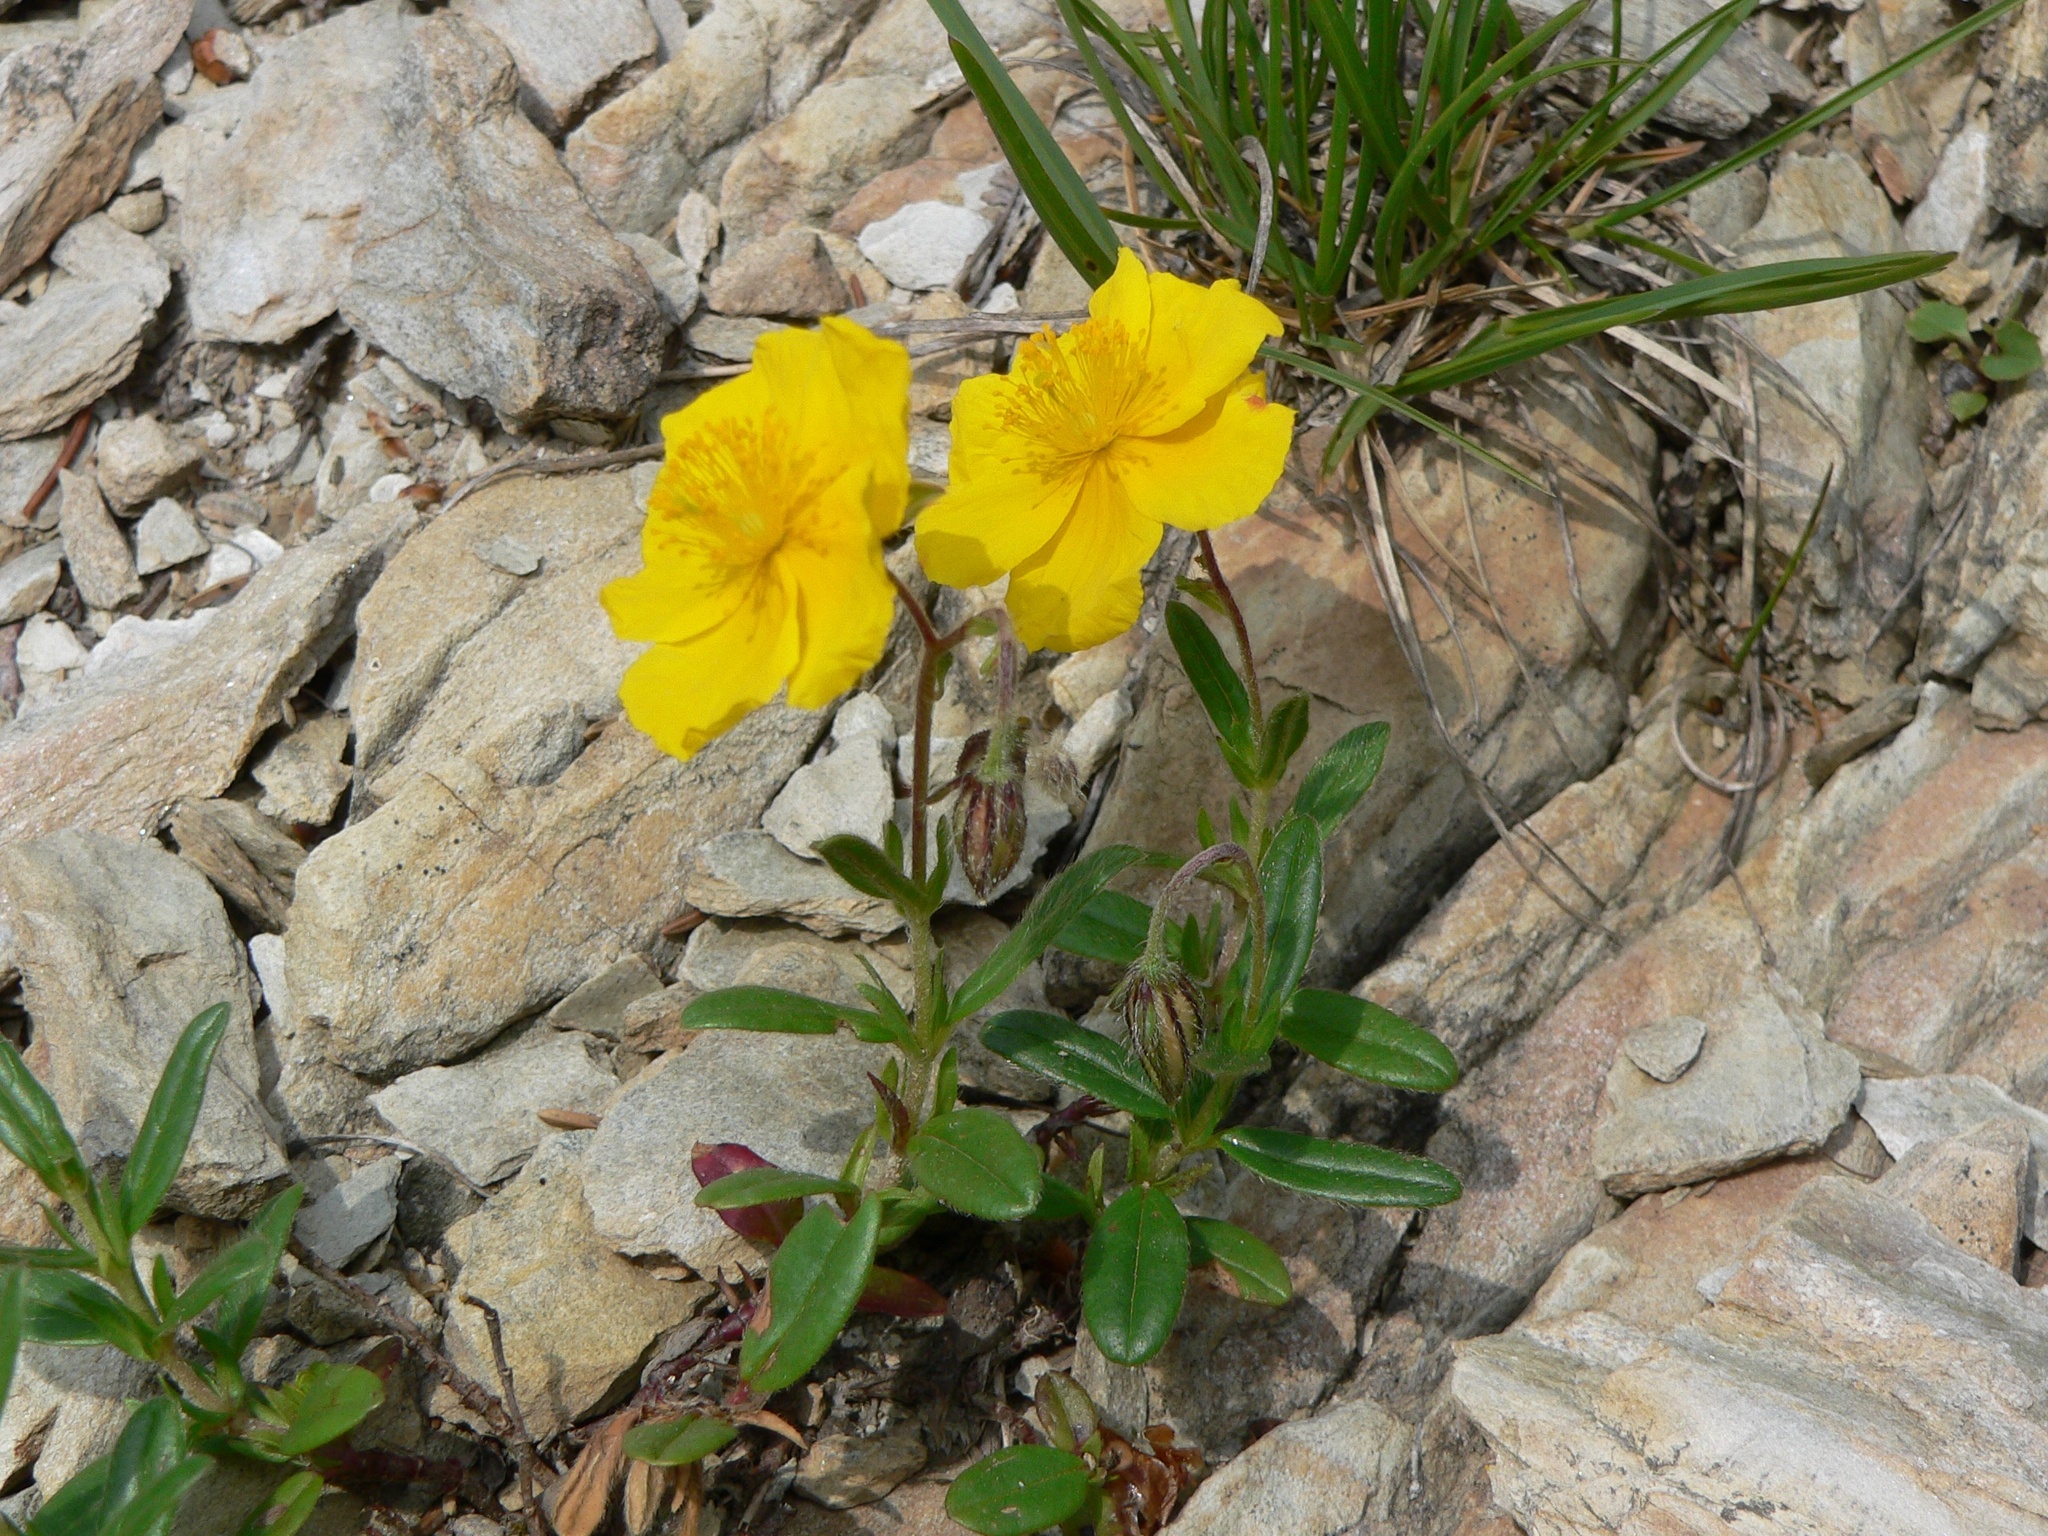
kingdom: Plantae
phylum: Tracheophyta
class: Magnoliopsida
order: Malvales
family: Cistaceae
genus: Helianthemum
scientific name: Helianthemum nummularium
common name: Common rock-rose
